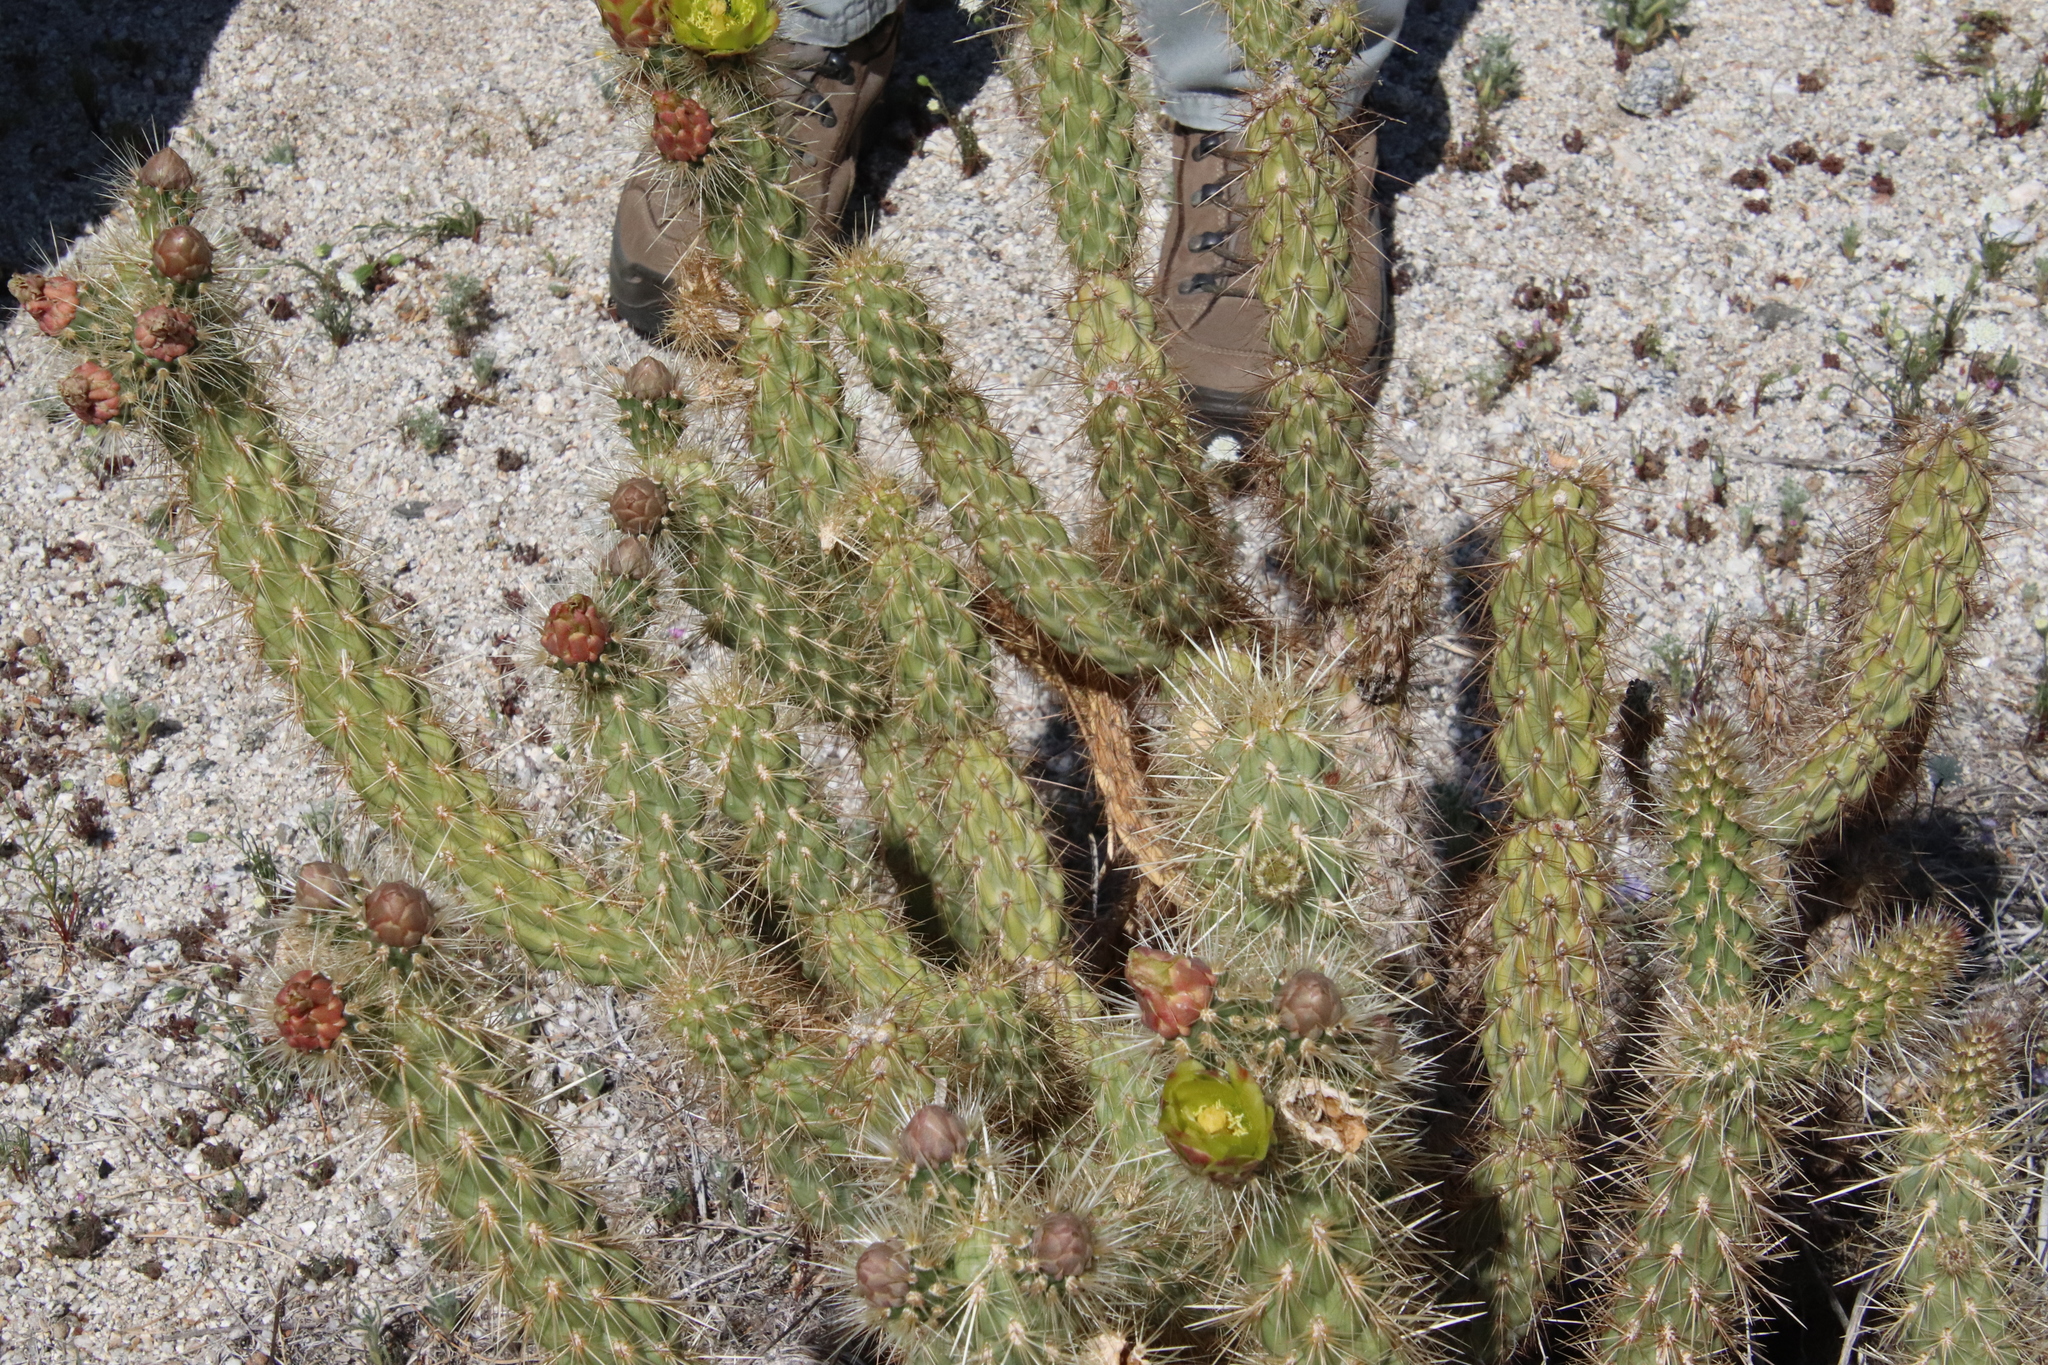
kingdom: Plantae
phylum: Tracheophyta
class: Magnoliopsida
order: Caryophyllales
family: Cactaceae
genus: Cylindropuntia
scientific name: Cylindropuntia ganderi
